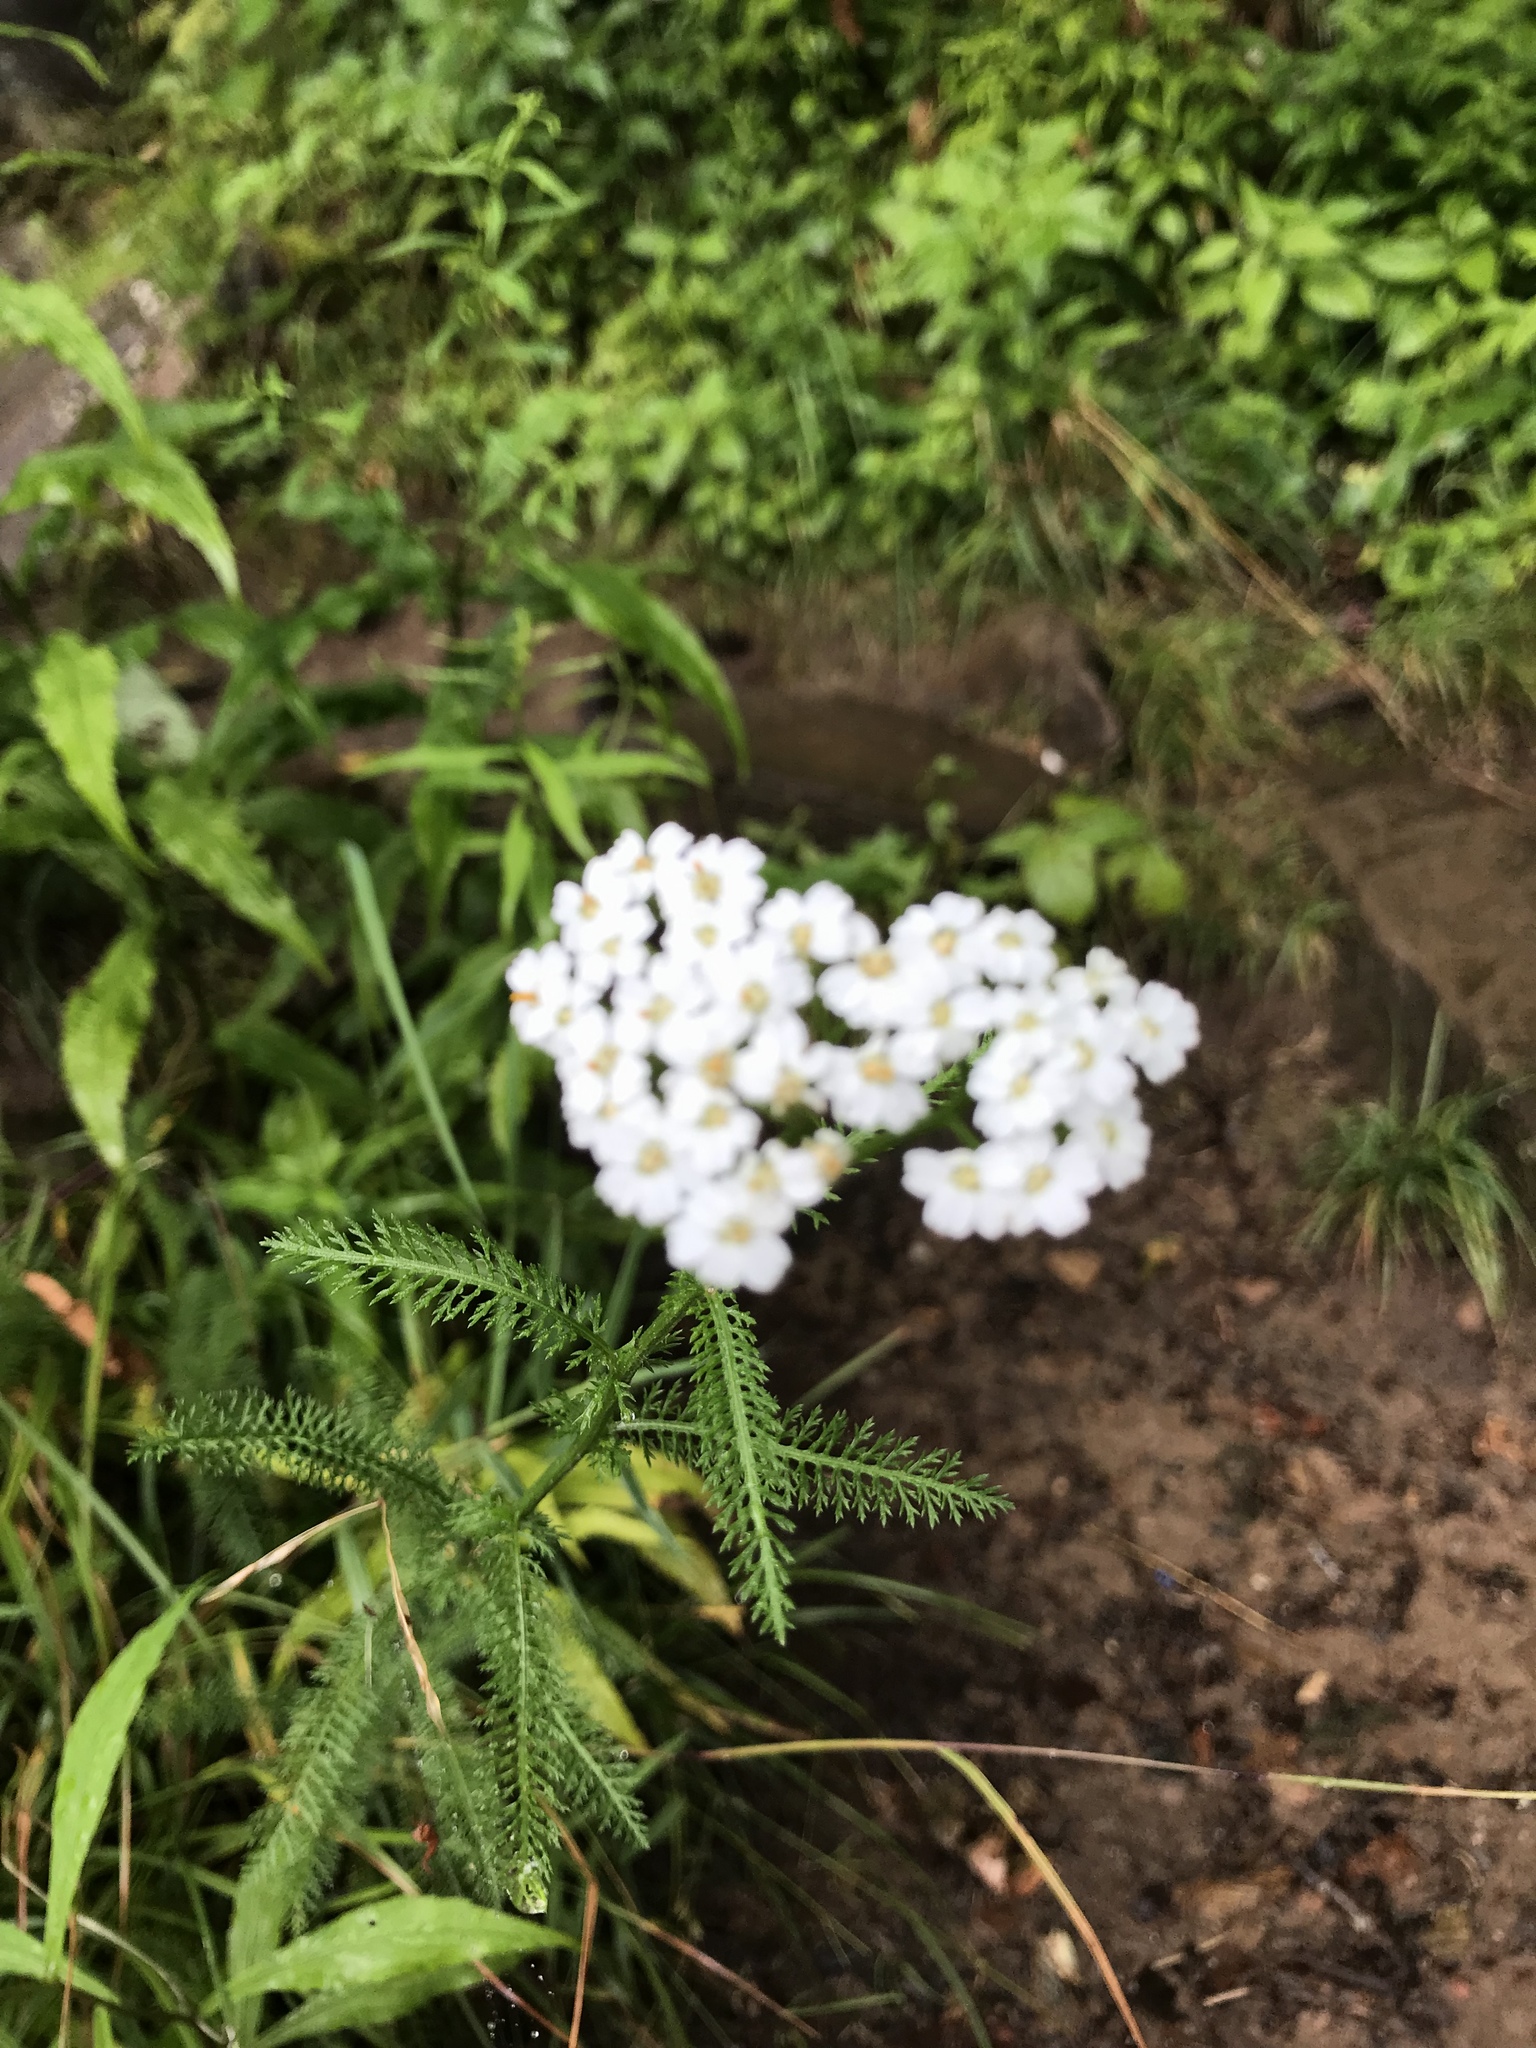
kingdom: Plantae
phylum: Tracheophyta
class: Magnoliopsida
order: Asterales
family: Asteraceae
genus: Achillea
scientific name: Achillea millefolium
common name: Yarrow
